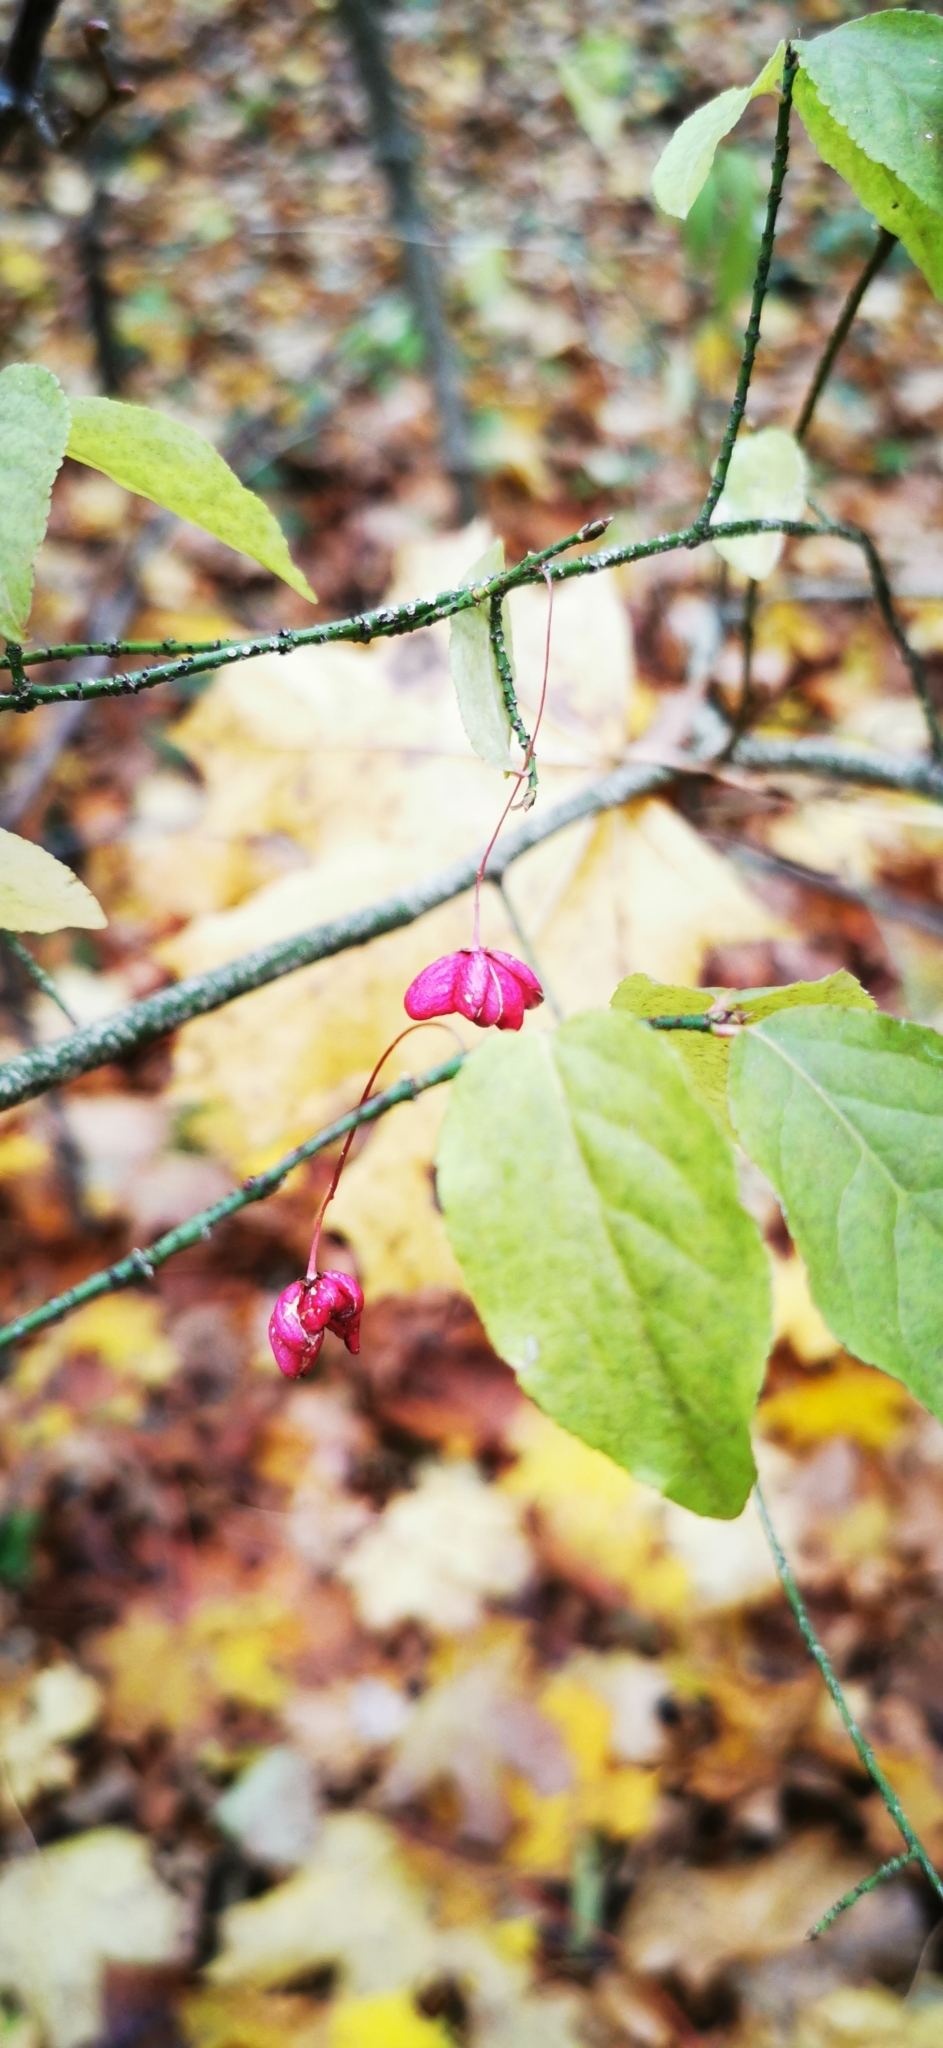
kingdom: Plantae
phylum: Tracheophyta
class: Magnoliopsida
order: Celastrales
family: Celastraceae
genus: Euonymus
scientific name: Euonymus verrucosus
